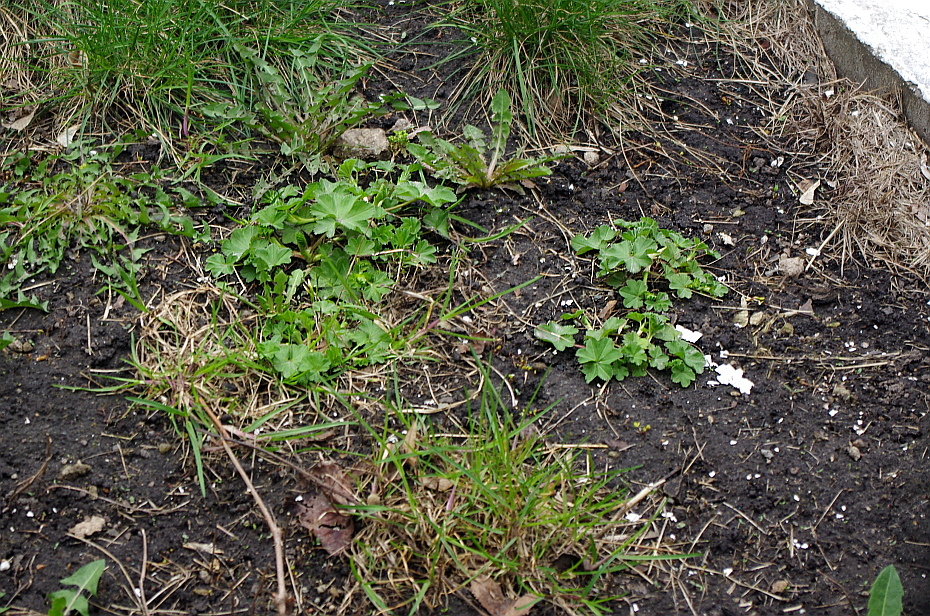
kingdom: Plantae
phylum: Tracheophyta
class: Magnoliopsida
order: Rosales
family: Rosaceae
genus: Alchemilla
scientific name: Alchemilla
